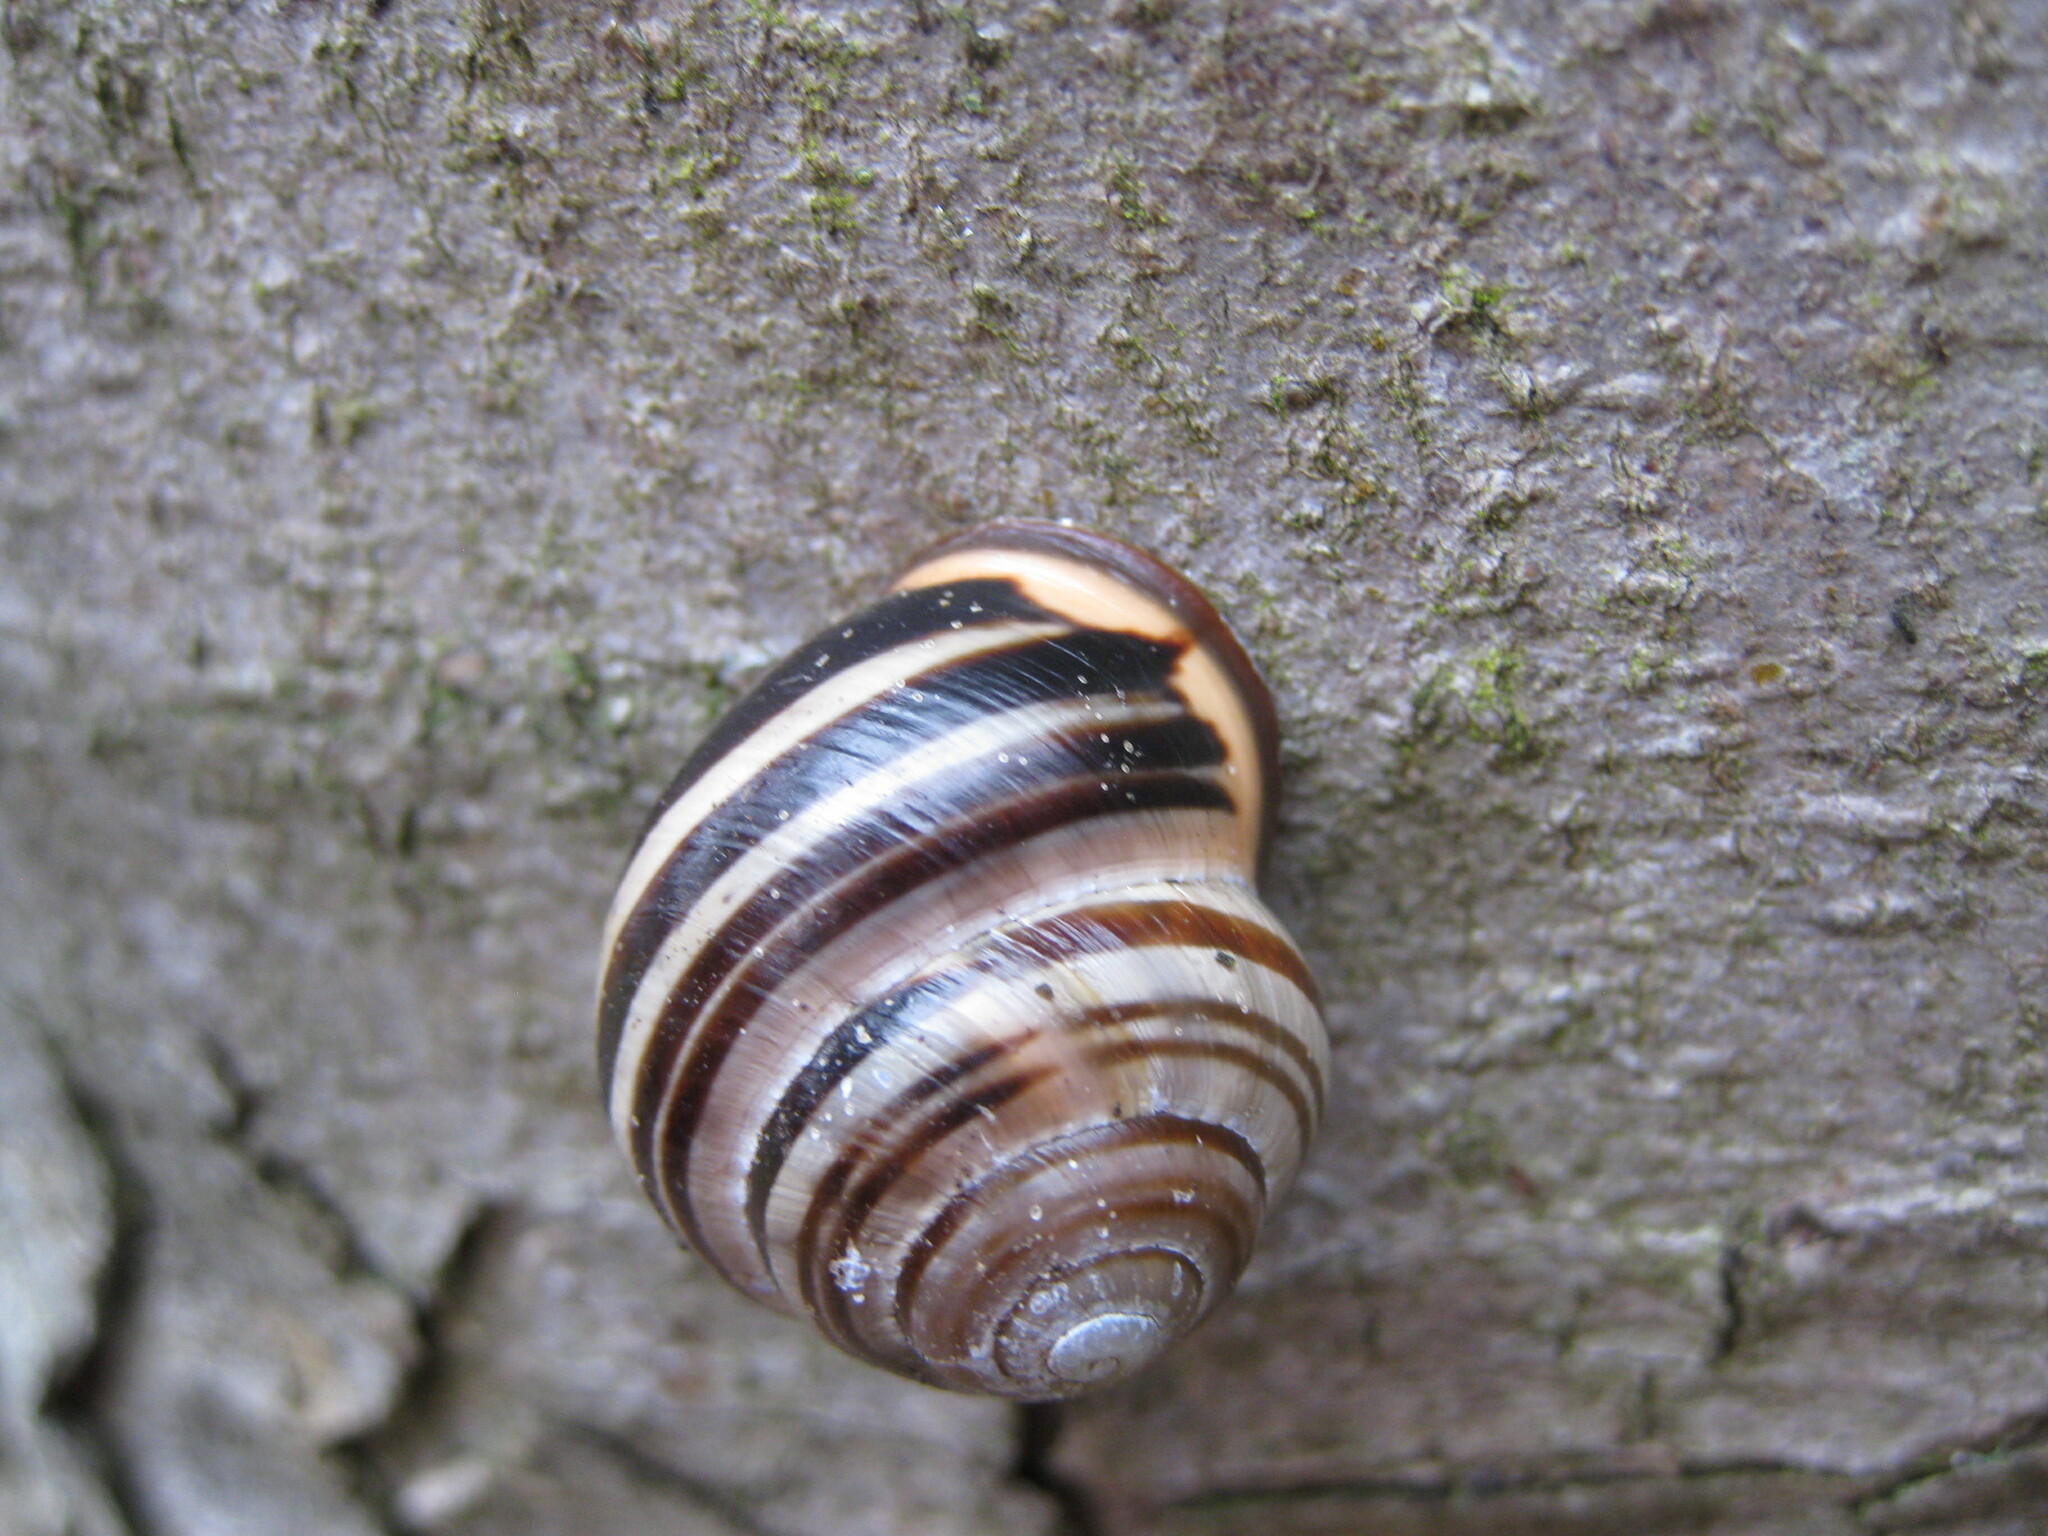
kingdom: Animalia
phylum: Mollusca
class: Gastropoda
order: Stylommatophora
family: Helicidae
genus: Cepaea
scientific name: Cepaea nemoralis
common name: Grovesnail
